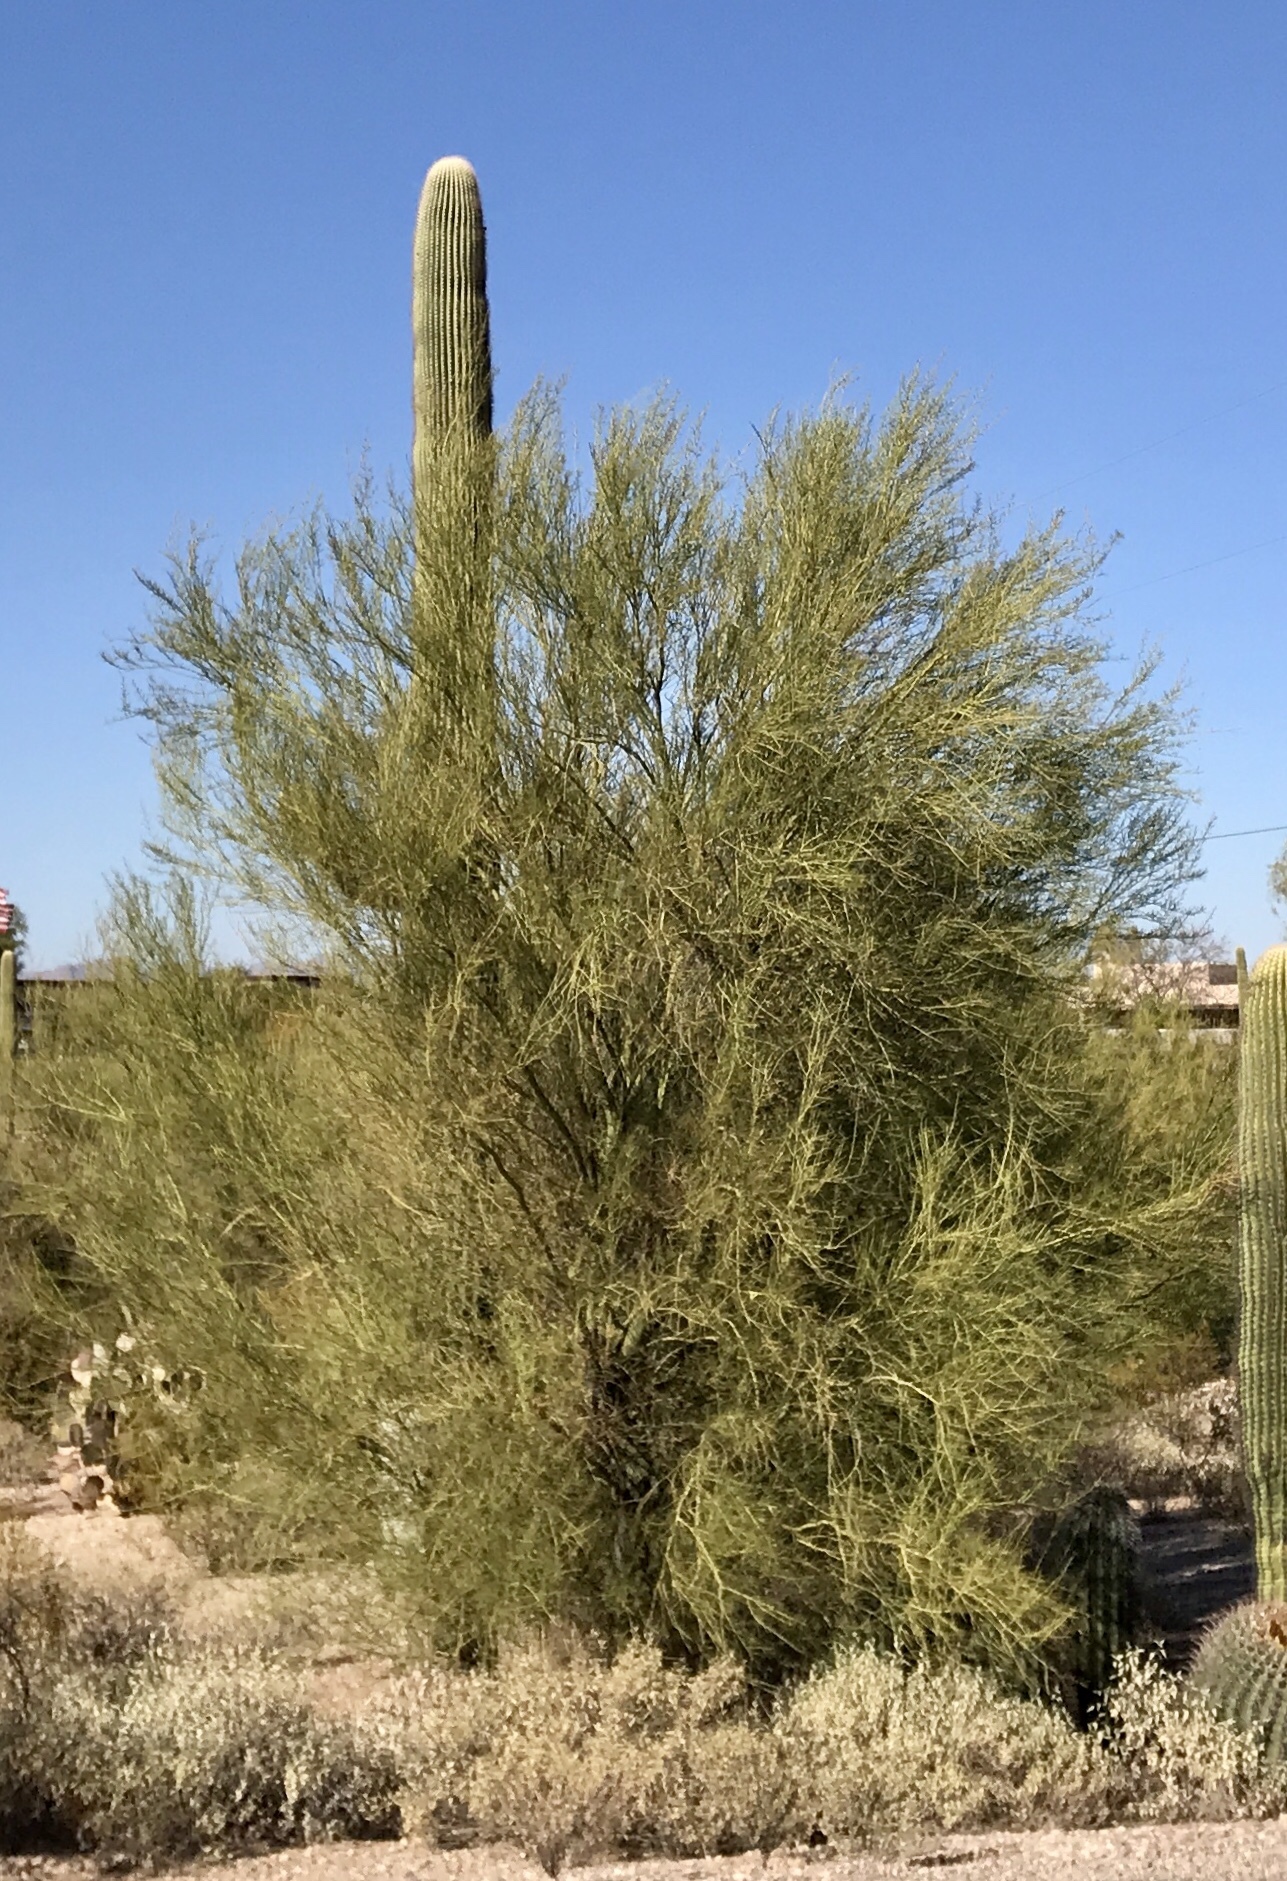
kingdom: Plantae
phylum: Tracheophyta
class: Magnoliopsida
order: Fabales
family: Fabaceae
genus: Parkinsonia
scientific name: Parkinsonia florida
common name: Blue paloverde
